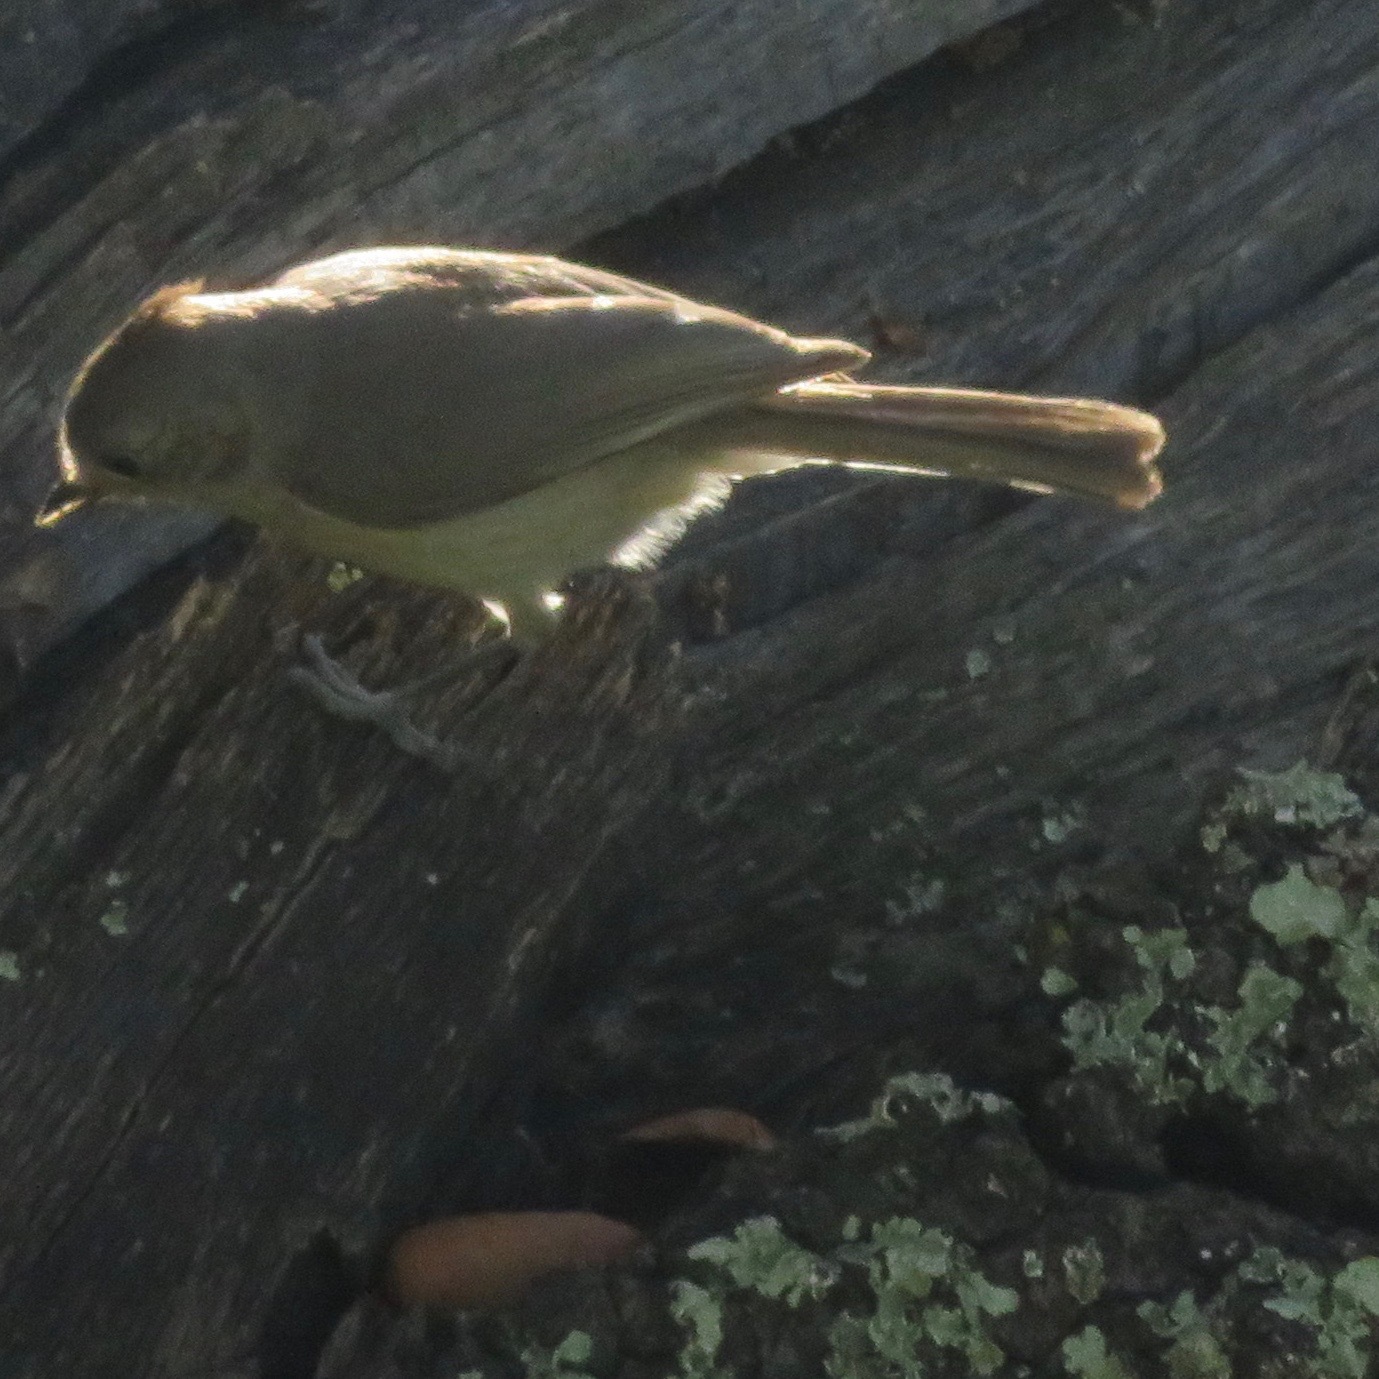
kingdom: Animalia
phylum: Chordata
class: Aves
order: Passeriformes
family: Paridae
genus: Baeolophus
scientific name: Baeolophus inornatus
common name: Oak titmouse
